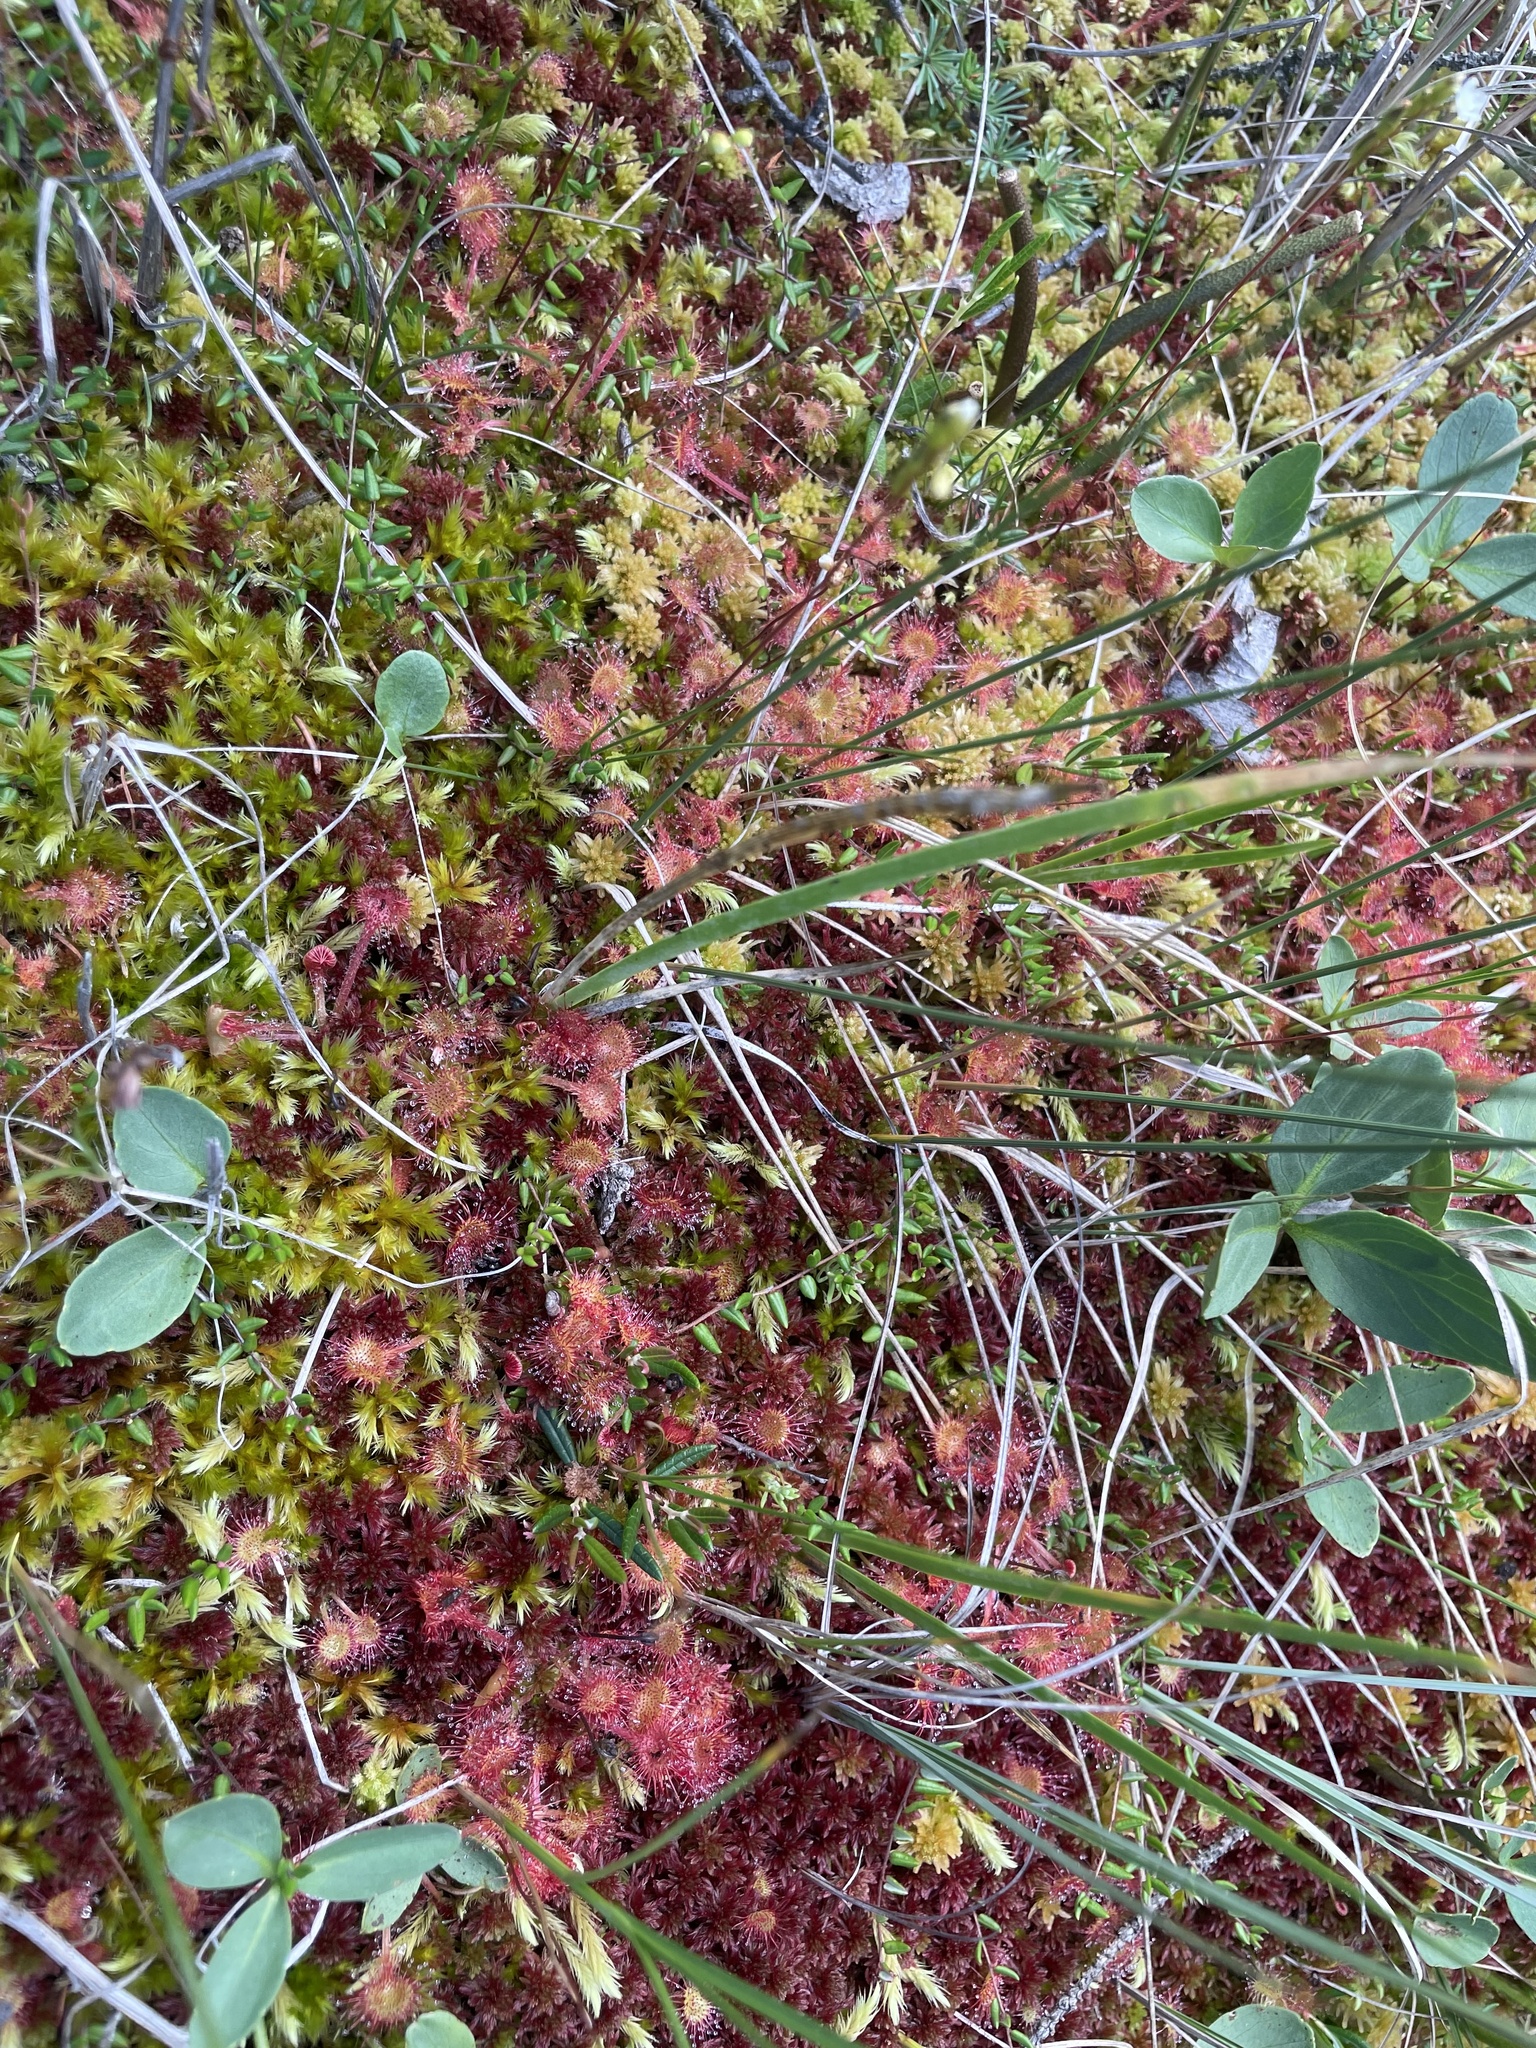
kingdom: Plantae
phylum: Tracheophyta
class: Magnoliopsida
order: Caryophyllales
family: Droseraceae
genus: Drosera
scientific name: Drosera rotundifolia
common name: Round-leaved sundew
